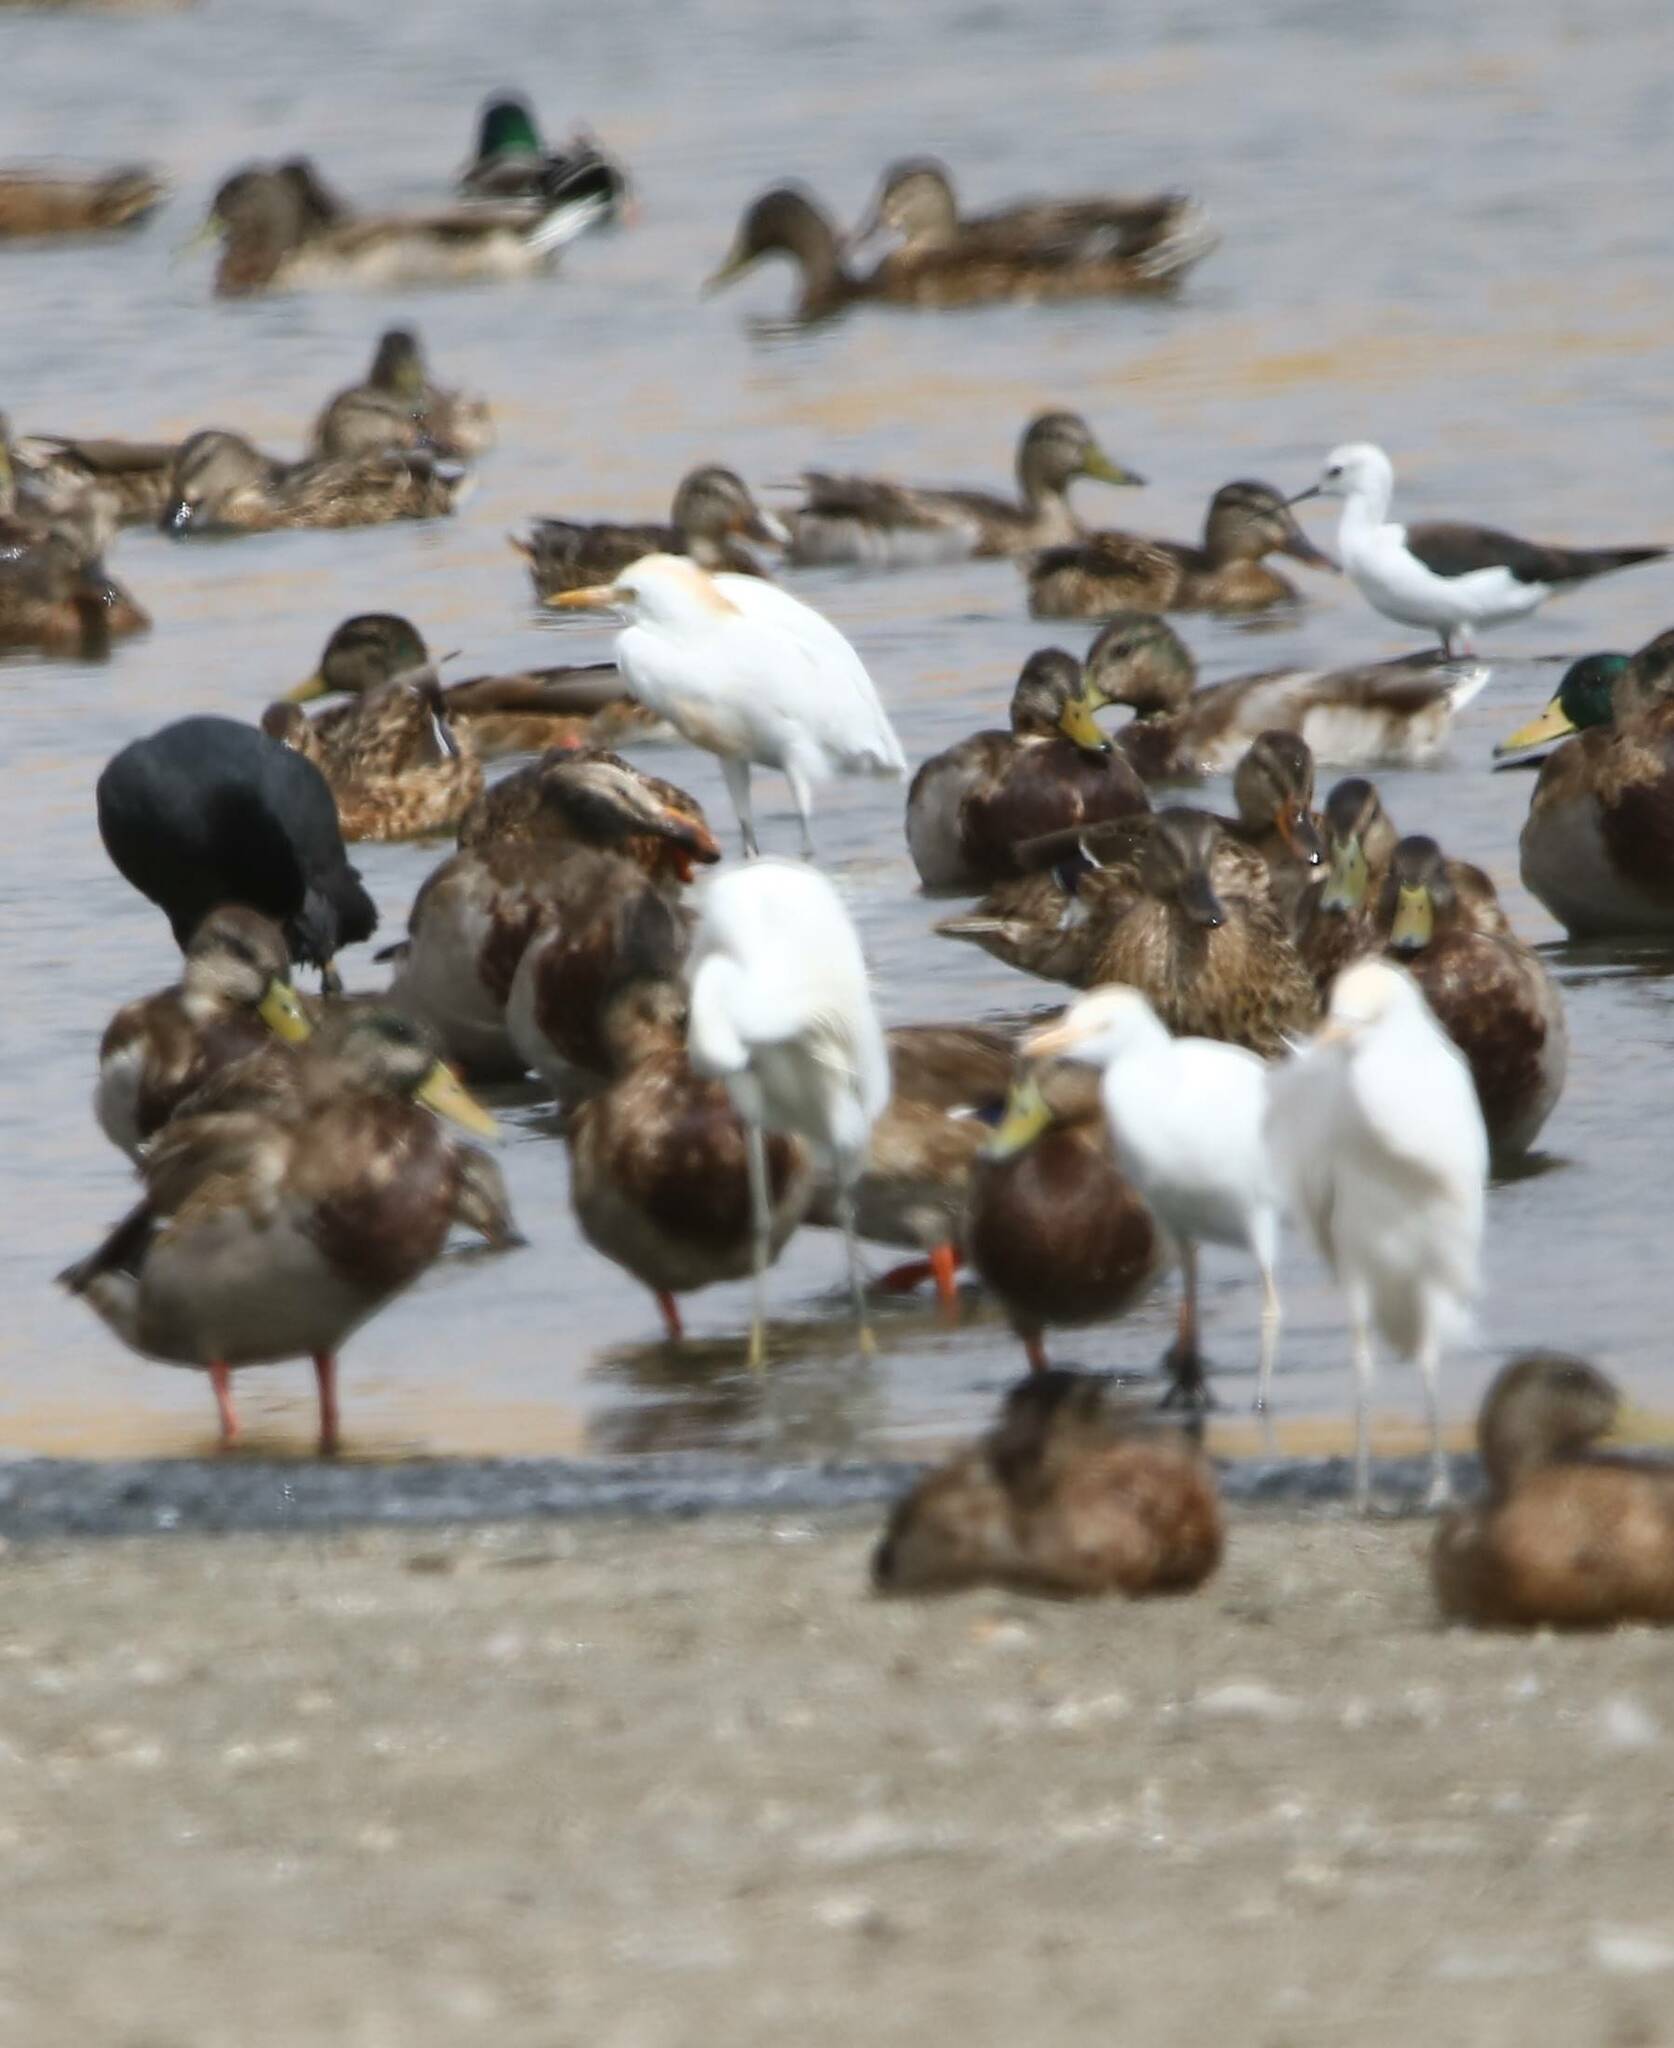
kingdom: Animalia
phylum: Chordata
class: Aves
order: Pelecaniformes
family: Ardeidae
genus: Bubulcus
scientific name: Bubulcus ibis
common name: Cattle egret
